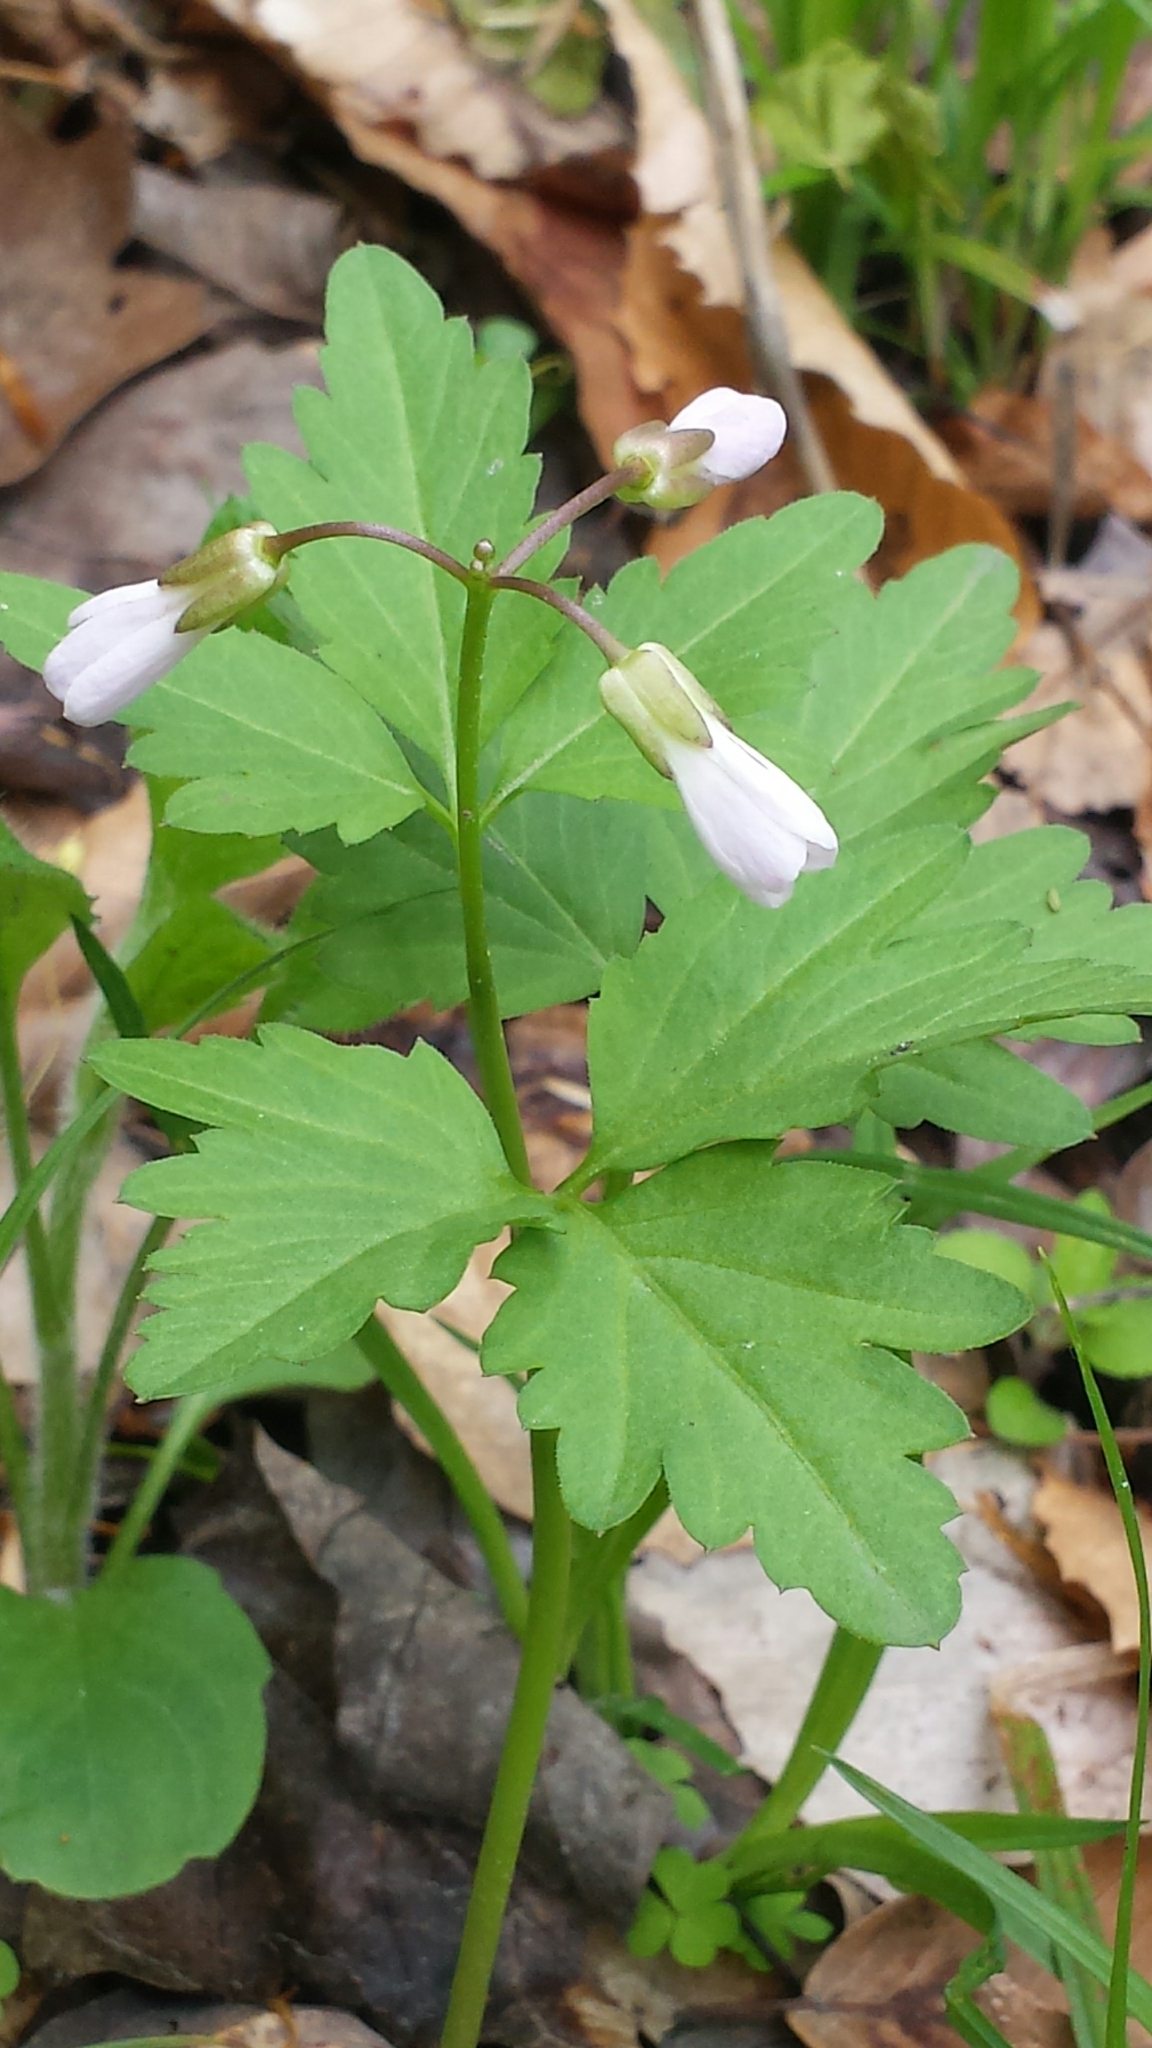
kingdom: Plantae
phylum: Tracheophyta
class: Magnoliopsida
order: Brassicales
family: Brassicaceae
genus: Cardamine
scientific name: Cardamine diphylla
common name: Broad-leaved toothwort
